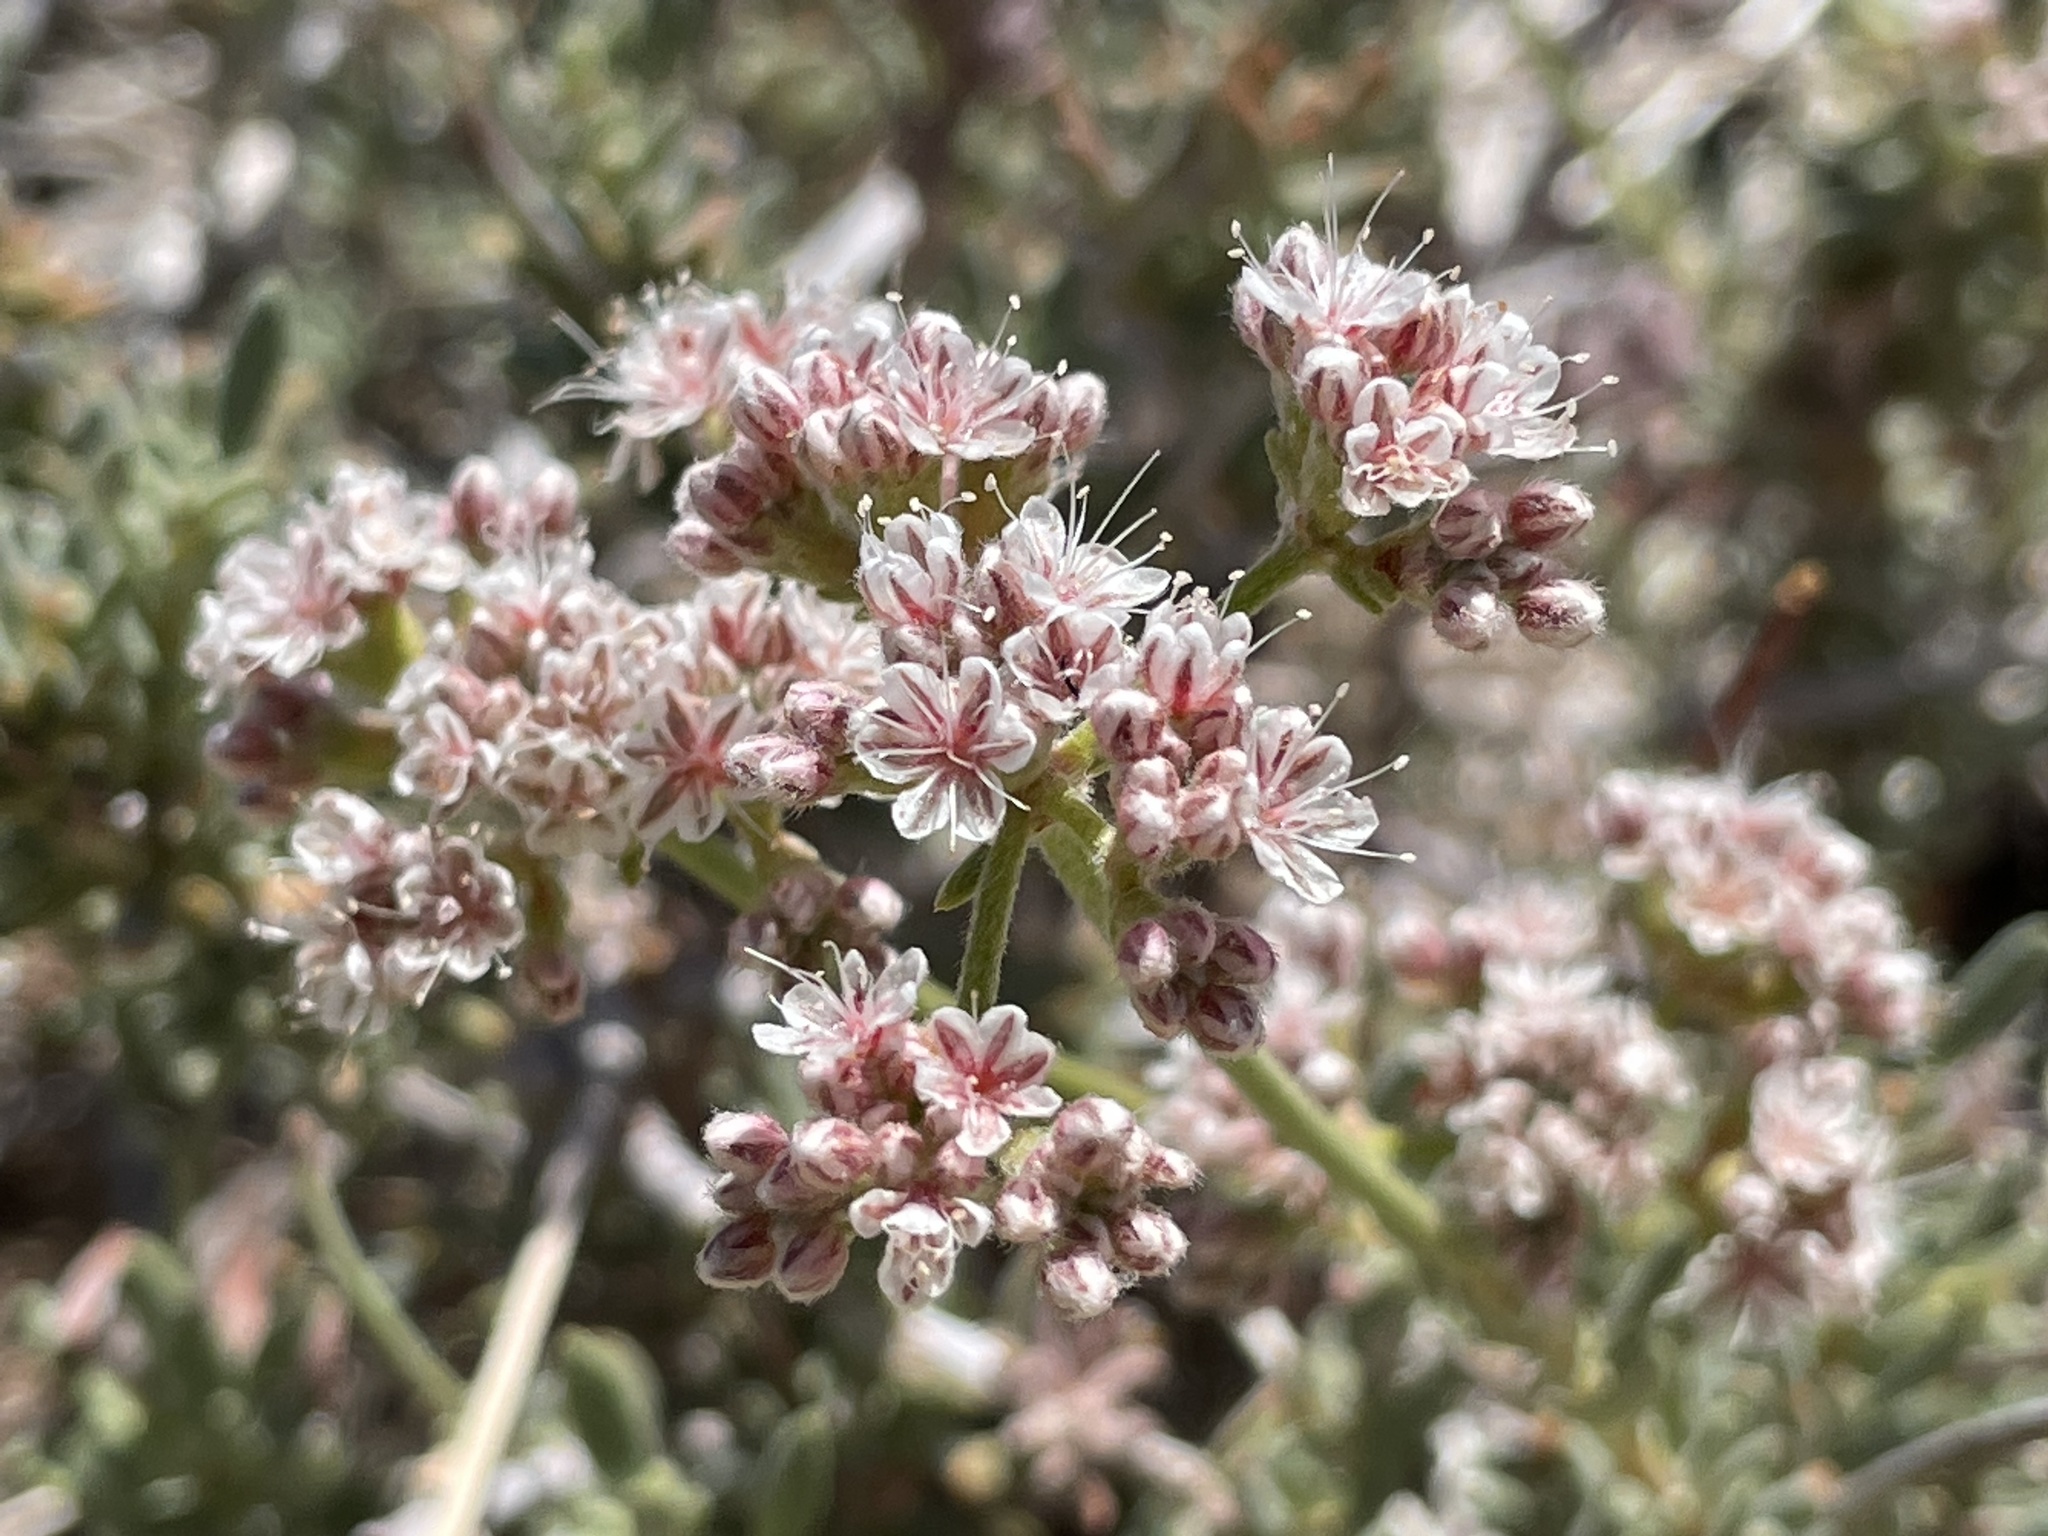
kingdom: Plantae
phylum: Tracheophyta
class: Magnoliopsida
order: Caryophyllales
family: Polygonaceae
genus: Eriogonum
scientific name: Eriogonum fasciculatum
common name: California wild buckwheat
